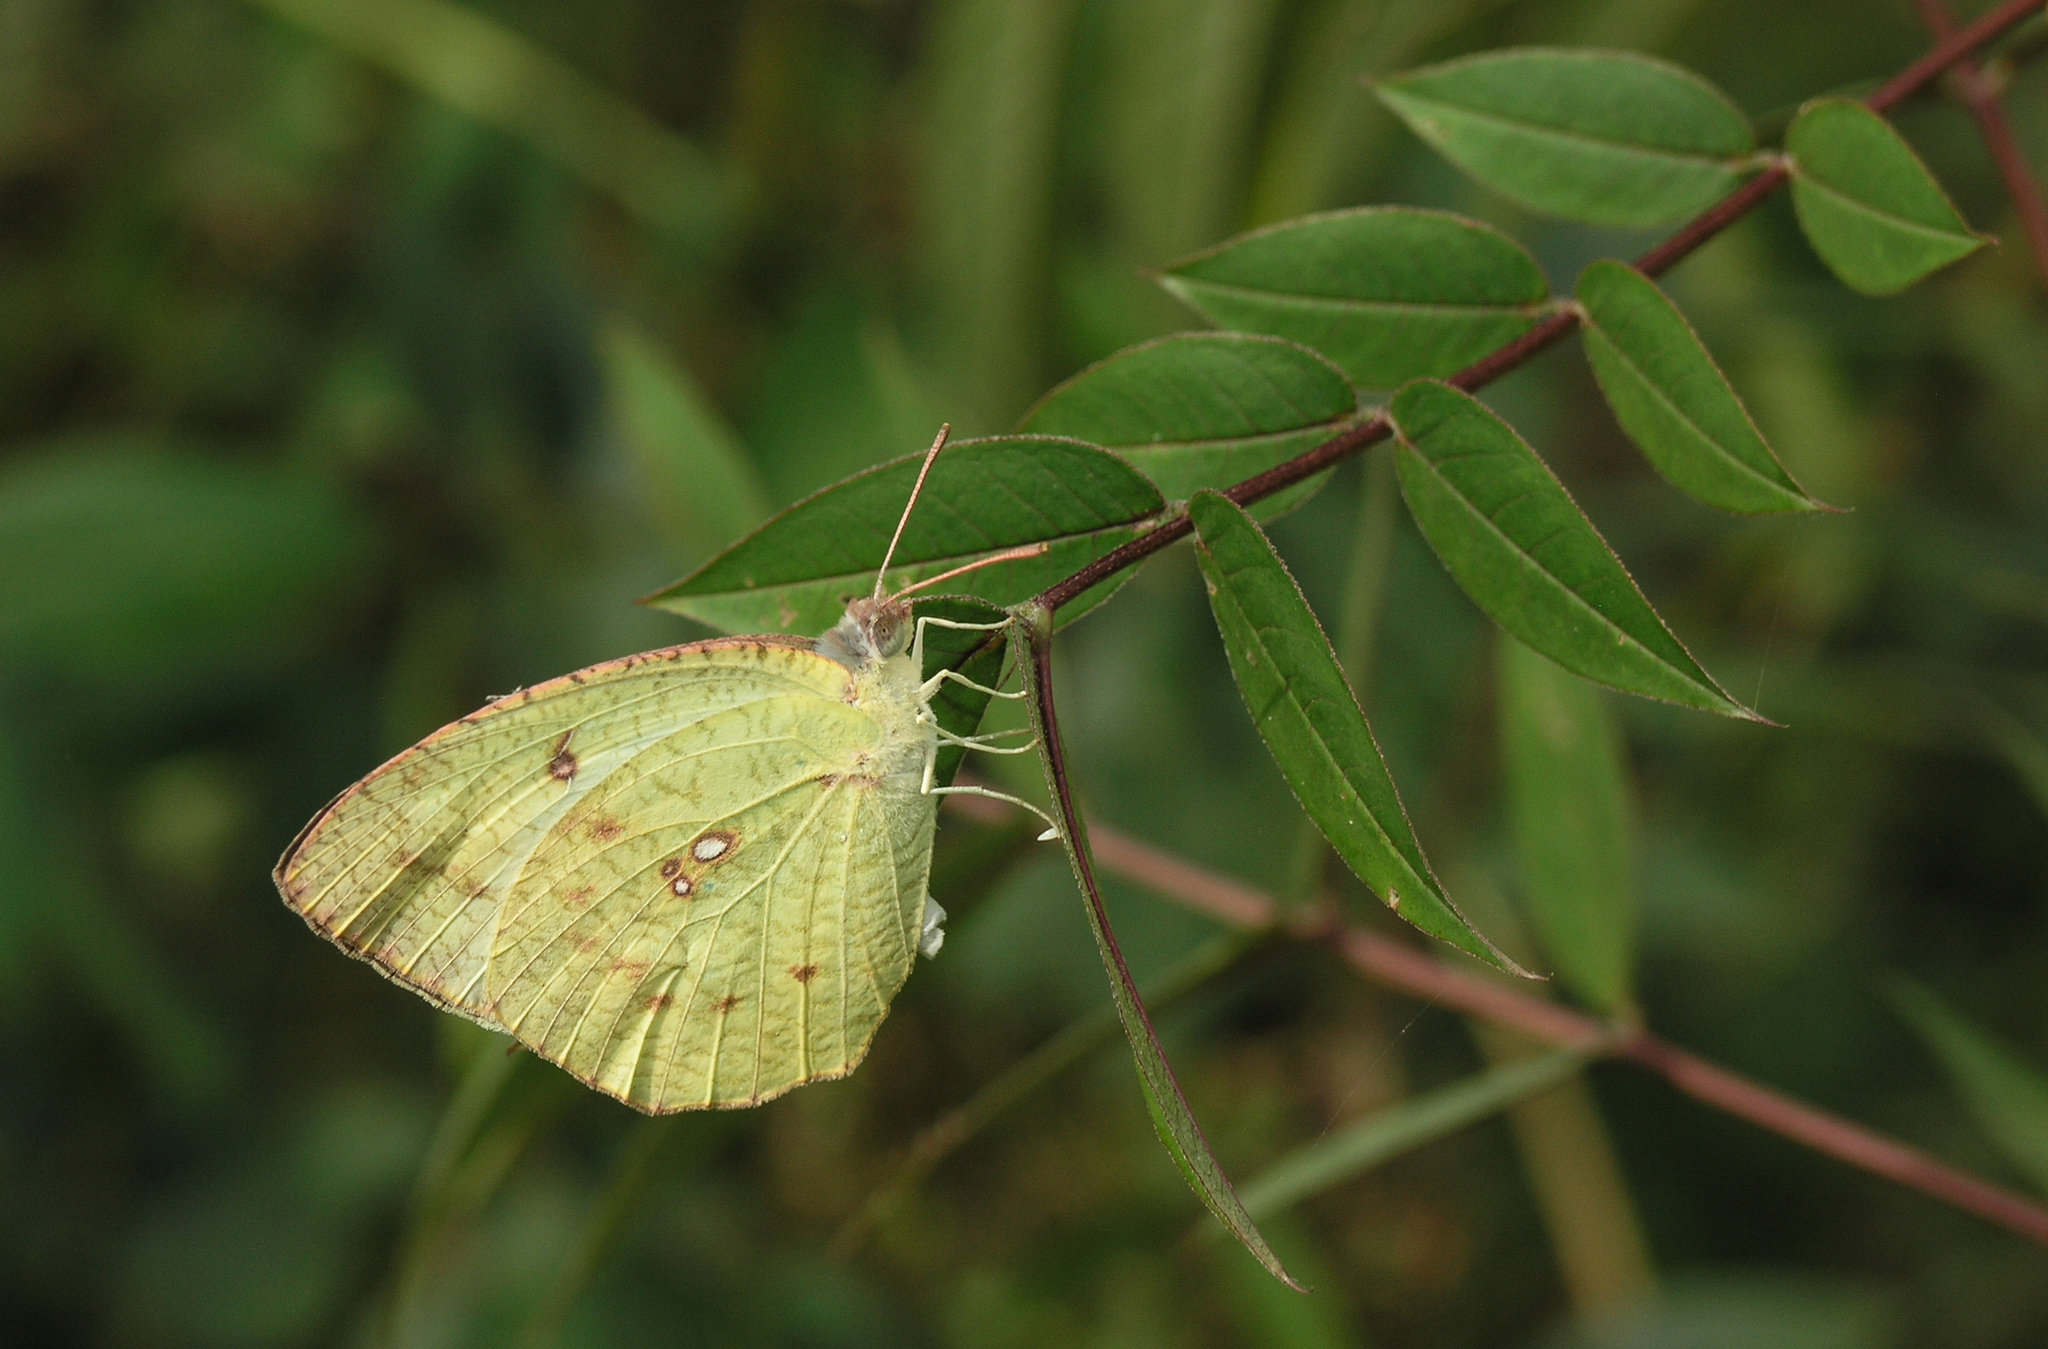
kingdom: Animalia
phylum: Arthropoda
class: Insecta
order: Lepidoptera
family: Pieridae
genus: Catopsilia
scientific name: Catopsilia pyranthe
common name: Mottled emigrant
